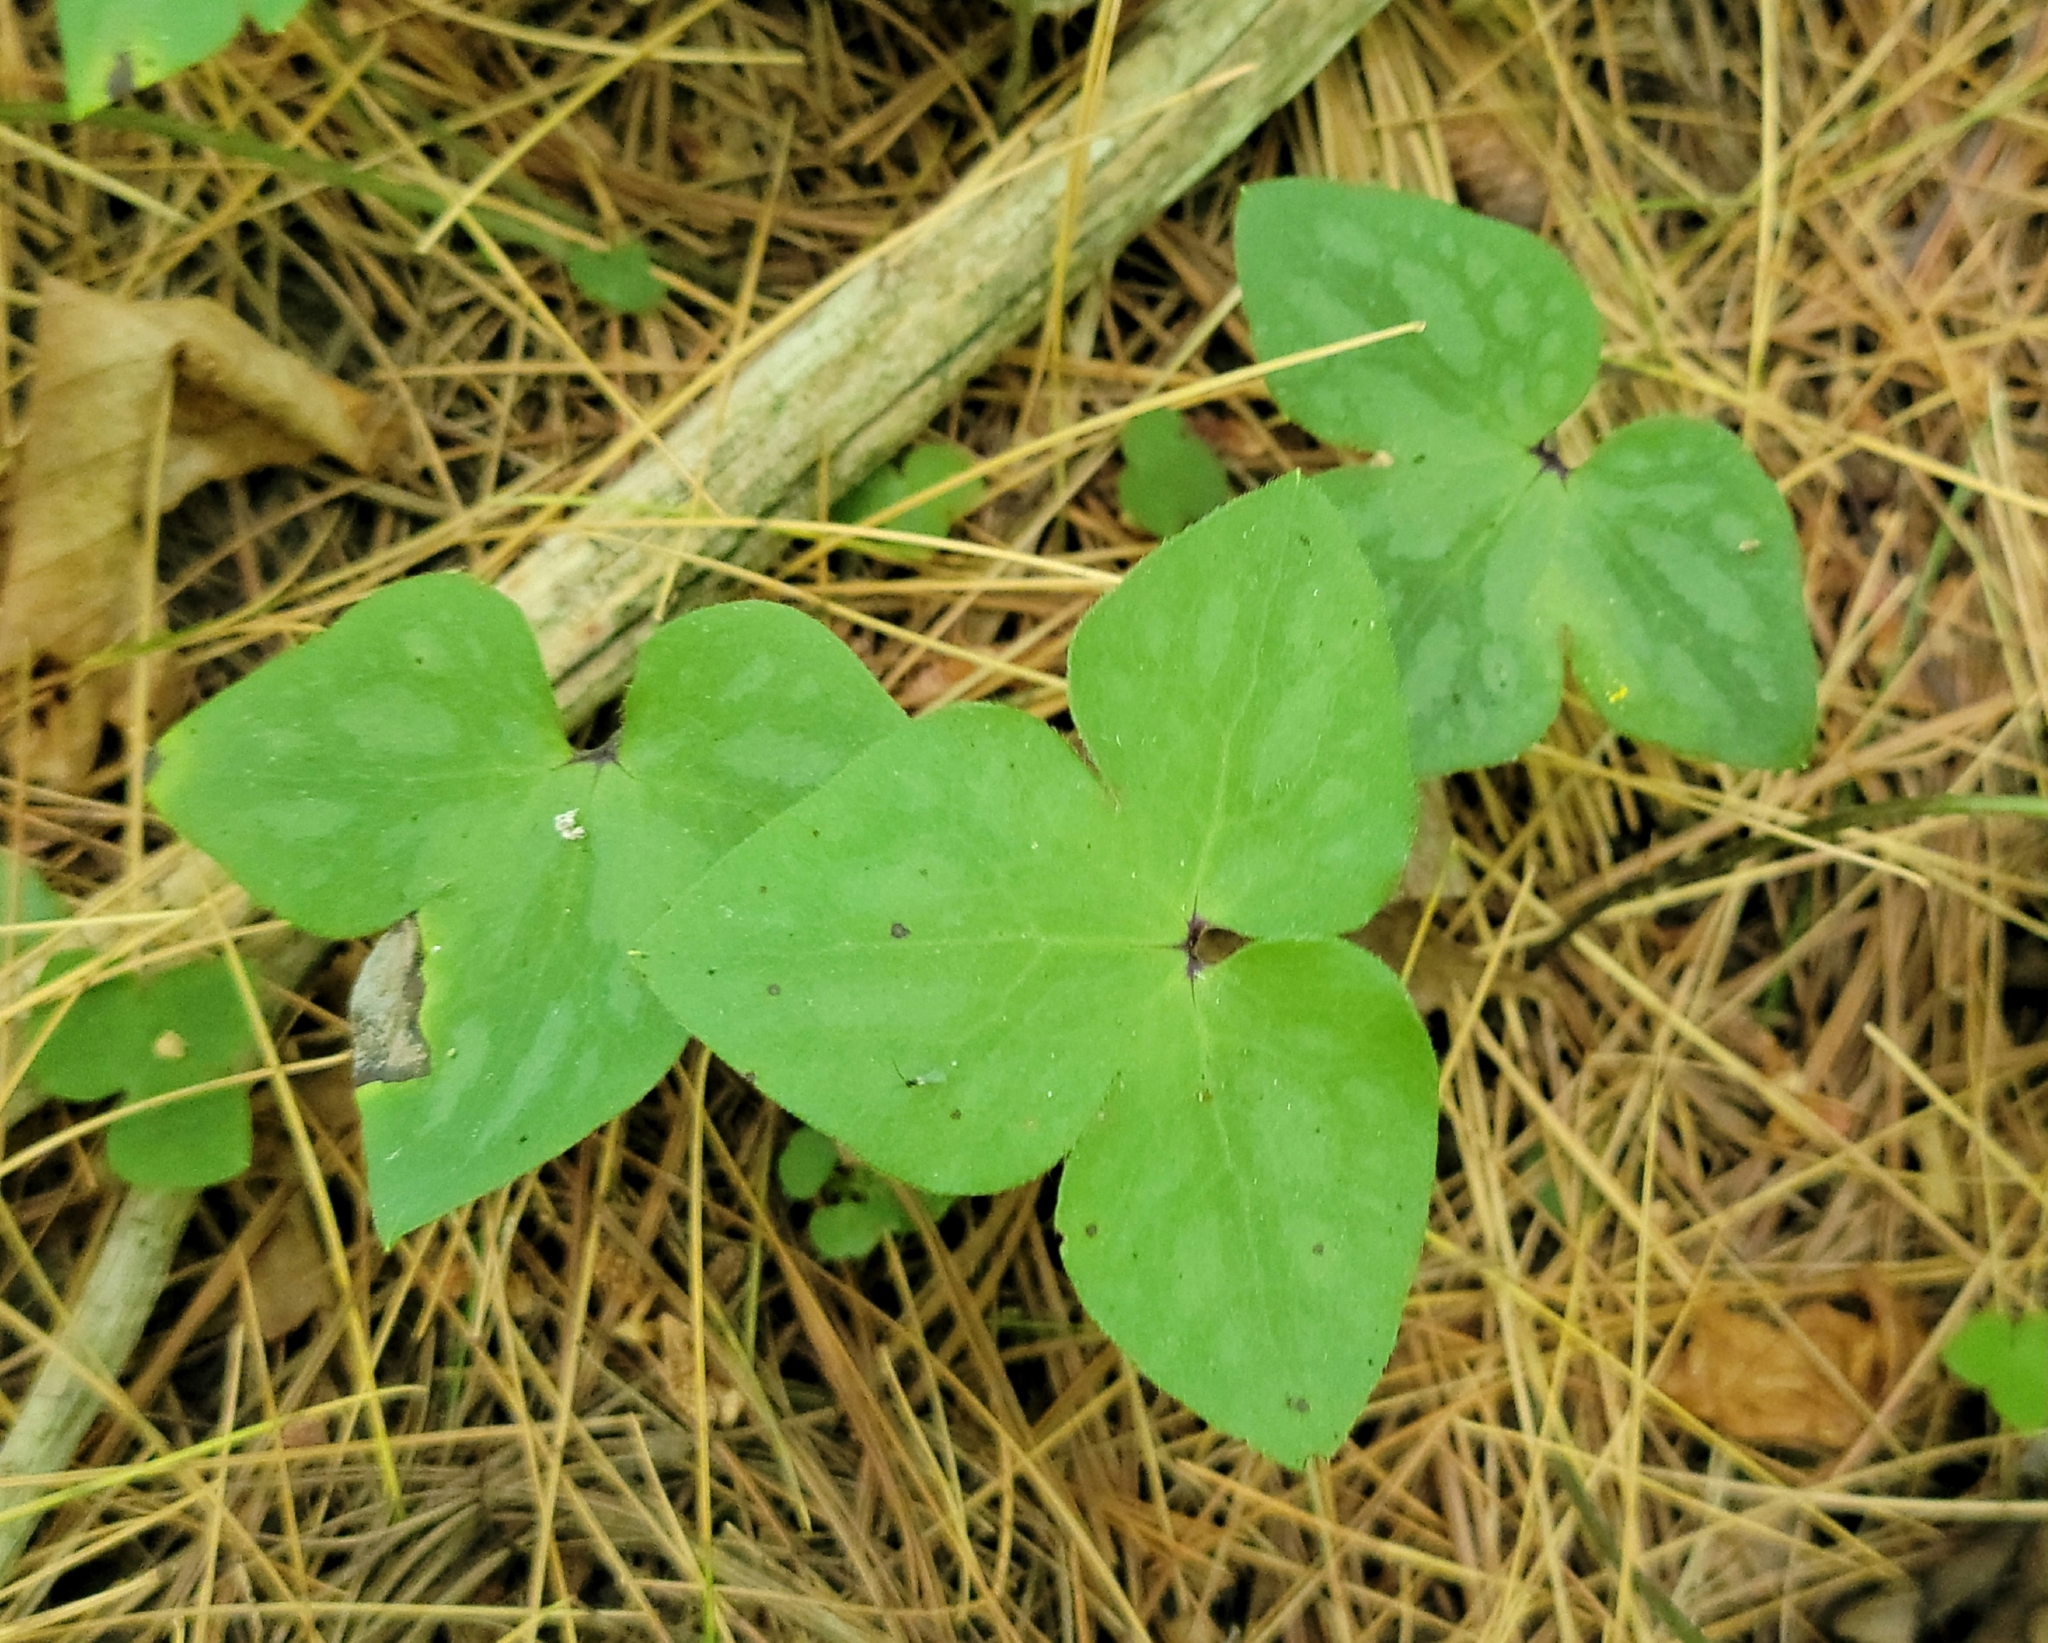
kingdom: Plantae
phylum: Tracheophyta
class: Magnoliopsida
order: Ranunculales
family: Ranunculaceae
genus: Hepatica
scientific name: Hepatica acutiloba
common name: Sharp-lobed hepatica
